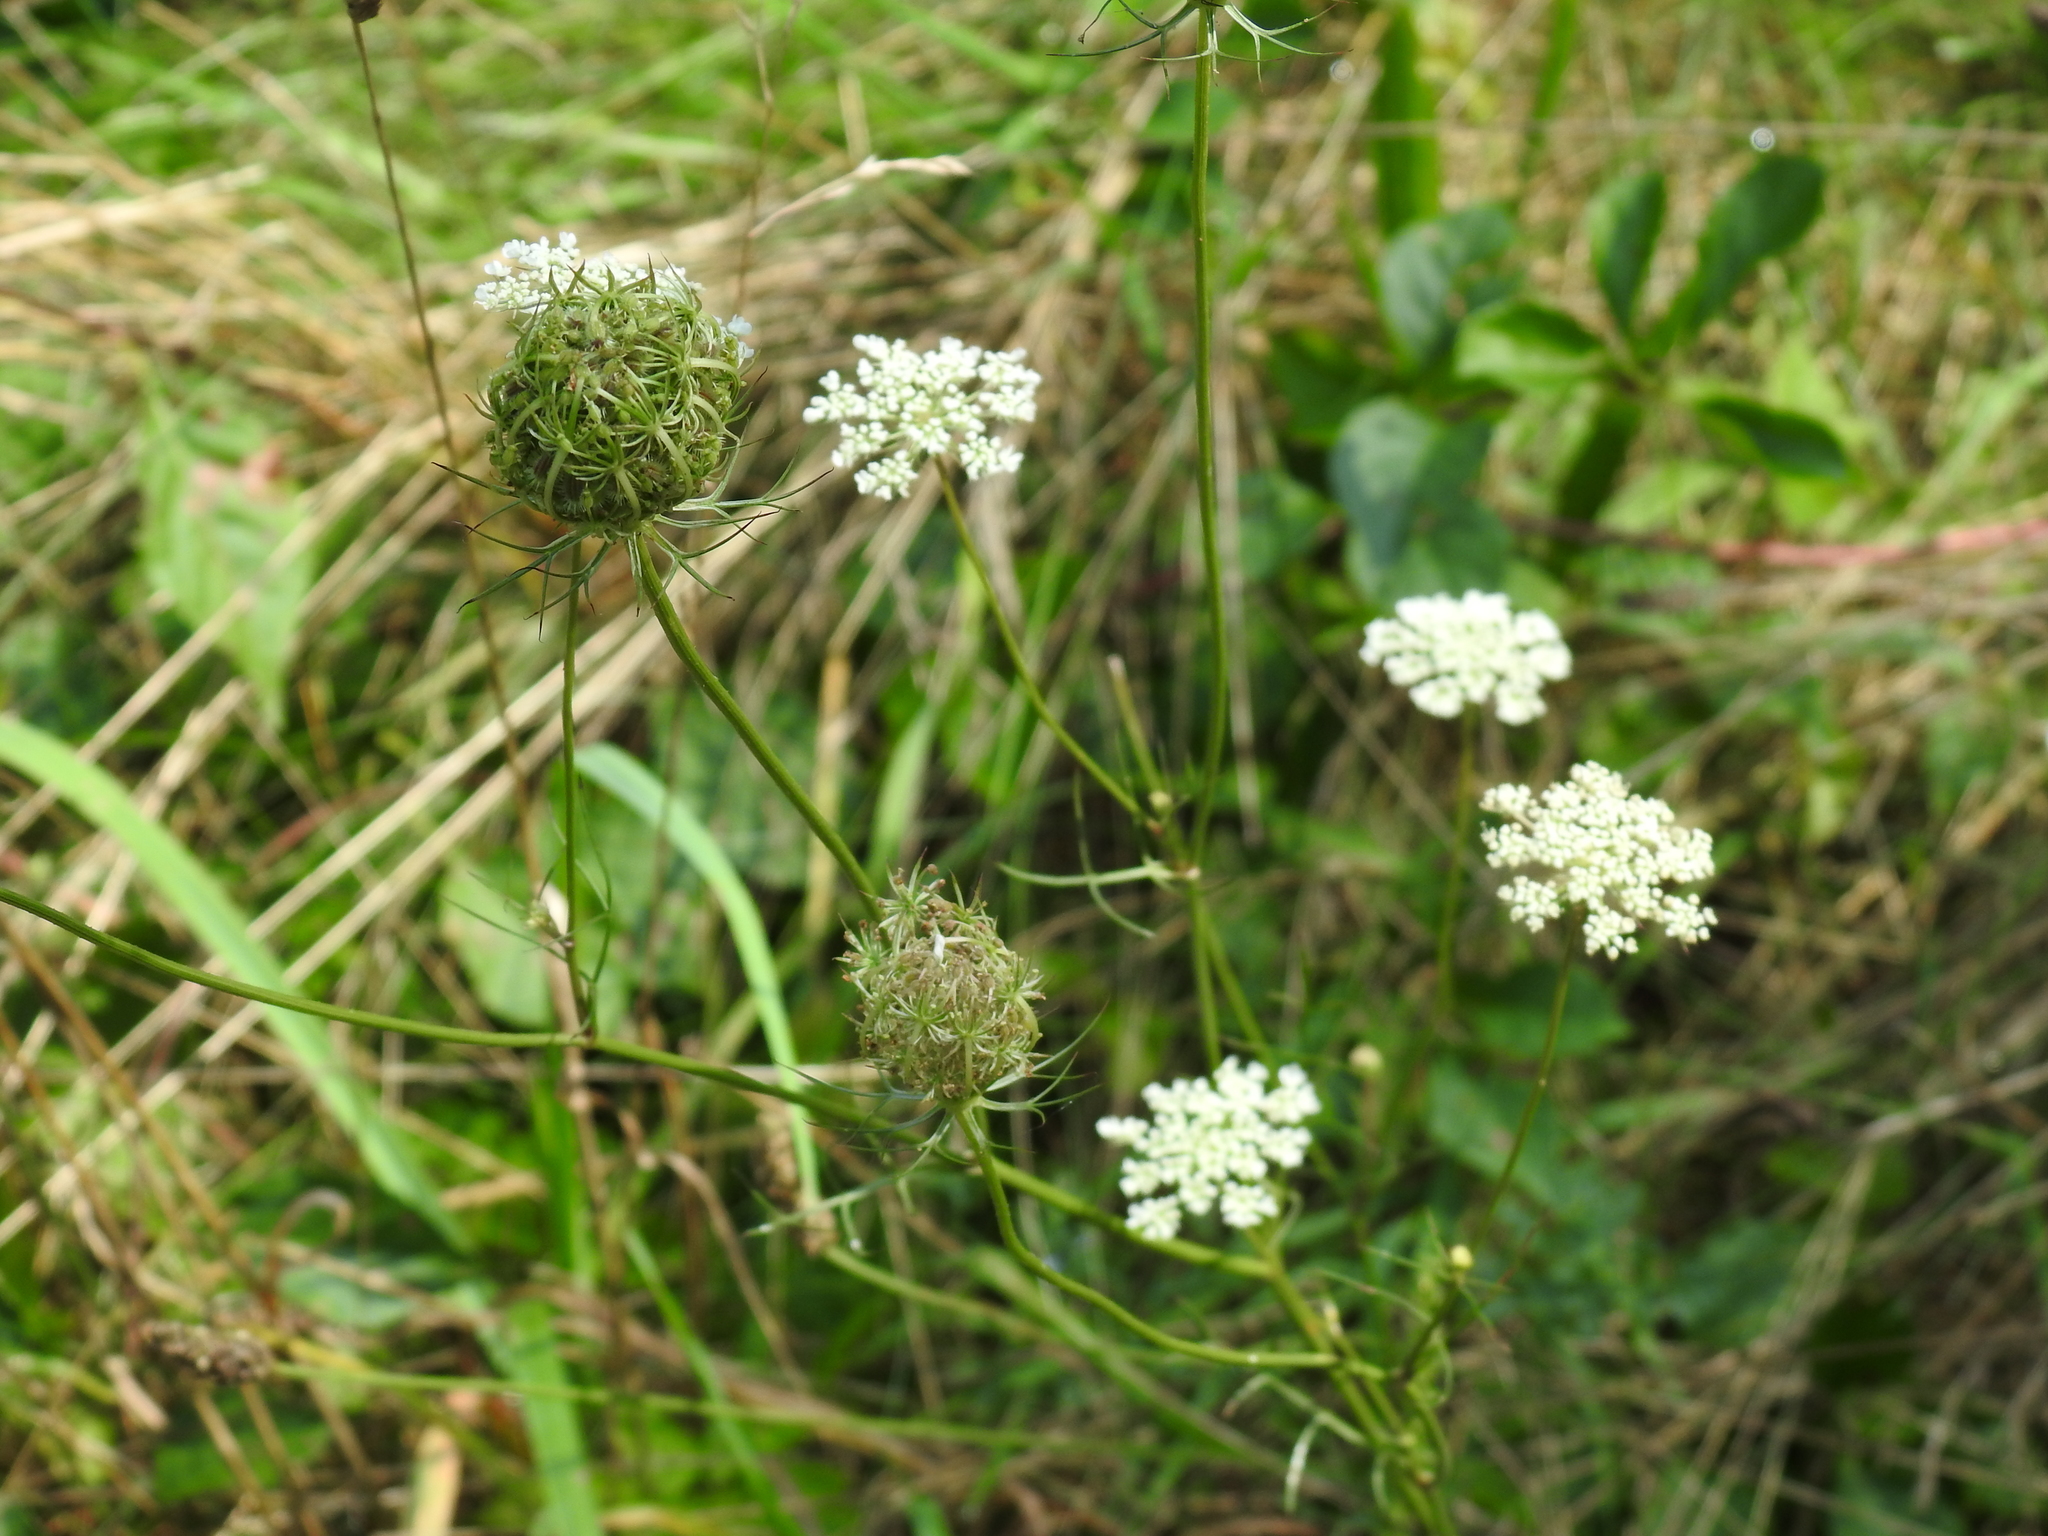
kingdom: Plantae
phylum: Tracheophyta
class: Magnoliopsida
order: Apiales
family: Apiaceae
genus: Daucus
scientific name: Daucus carota
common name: Wild carrot
